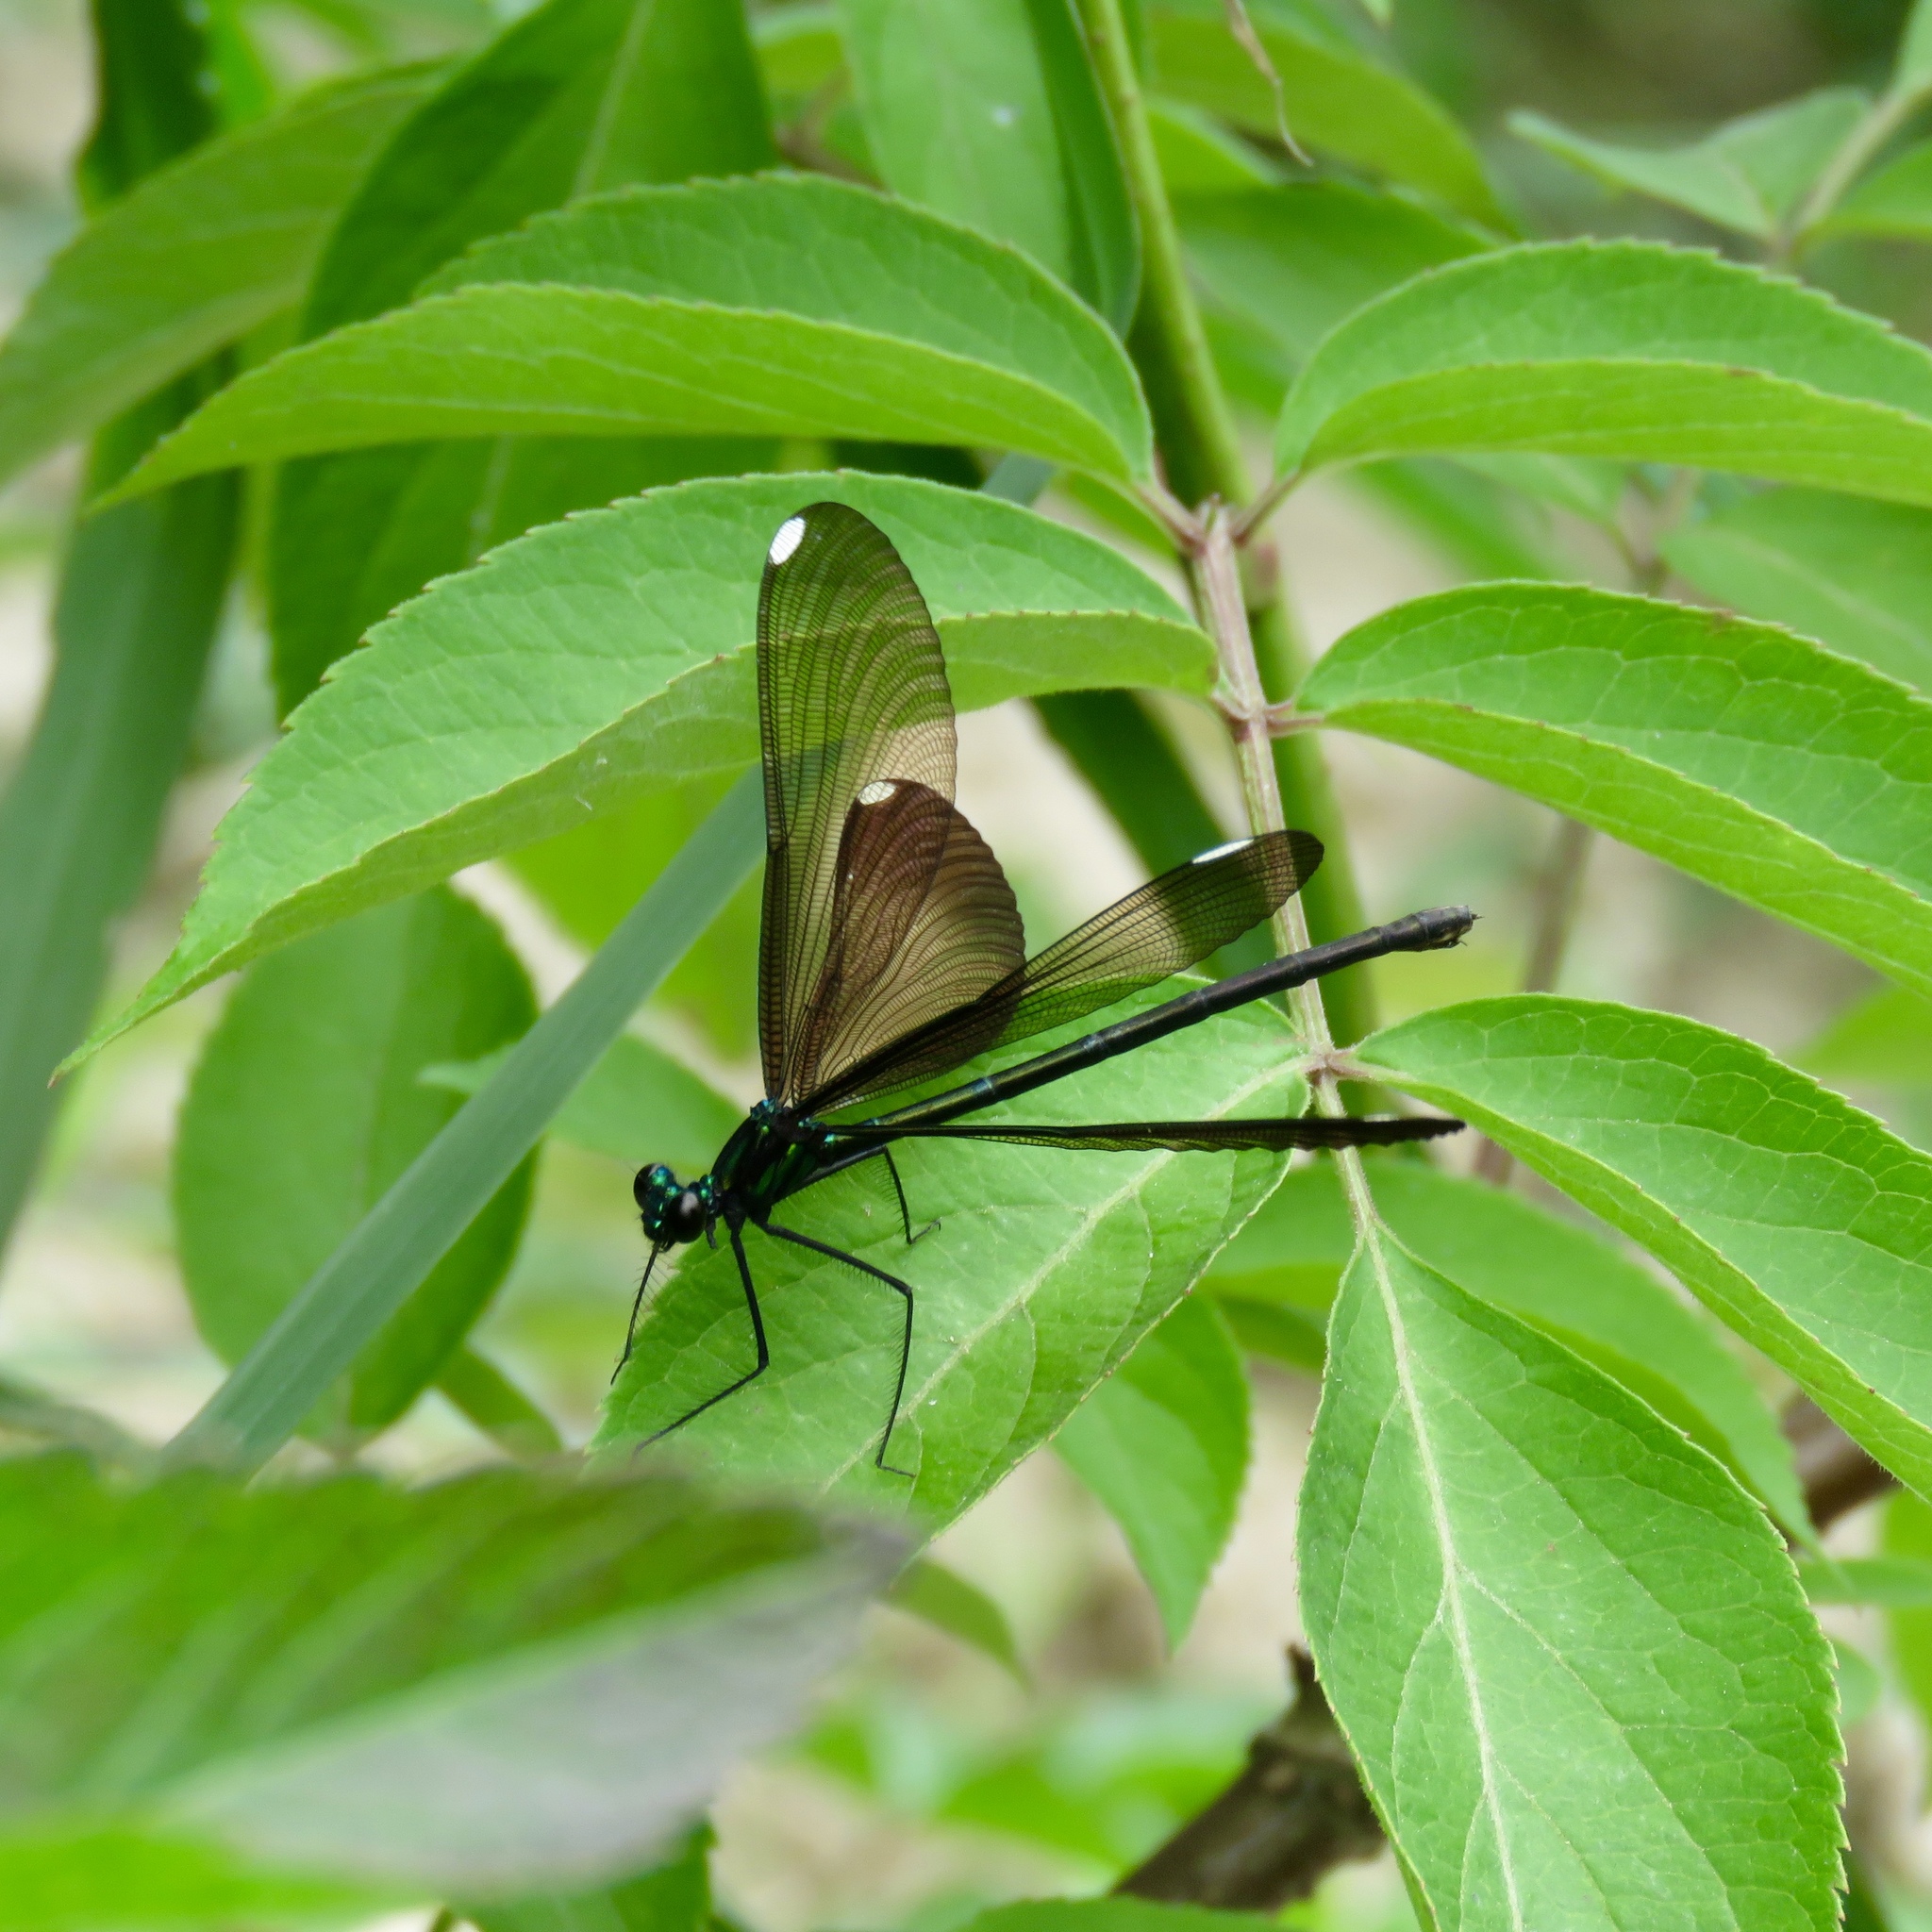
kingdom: Animalia
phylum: Arthropoda
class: Insecta
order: Odonata
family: Calopterygidae
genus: Calopteryx
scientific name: Calopteryx maculata
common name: Ebony jewelwing
